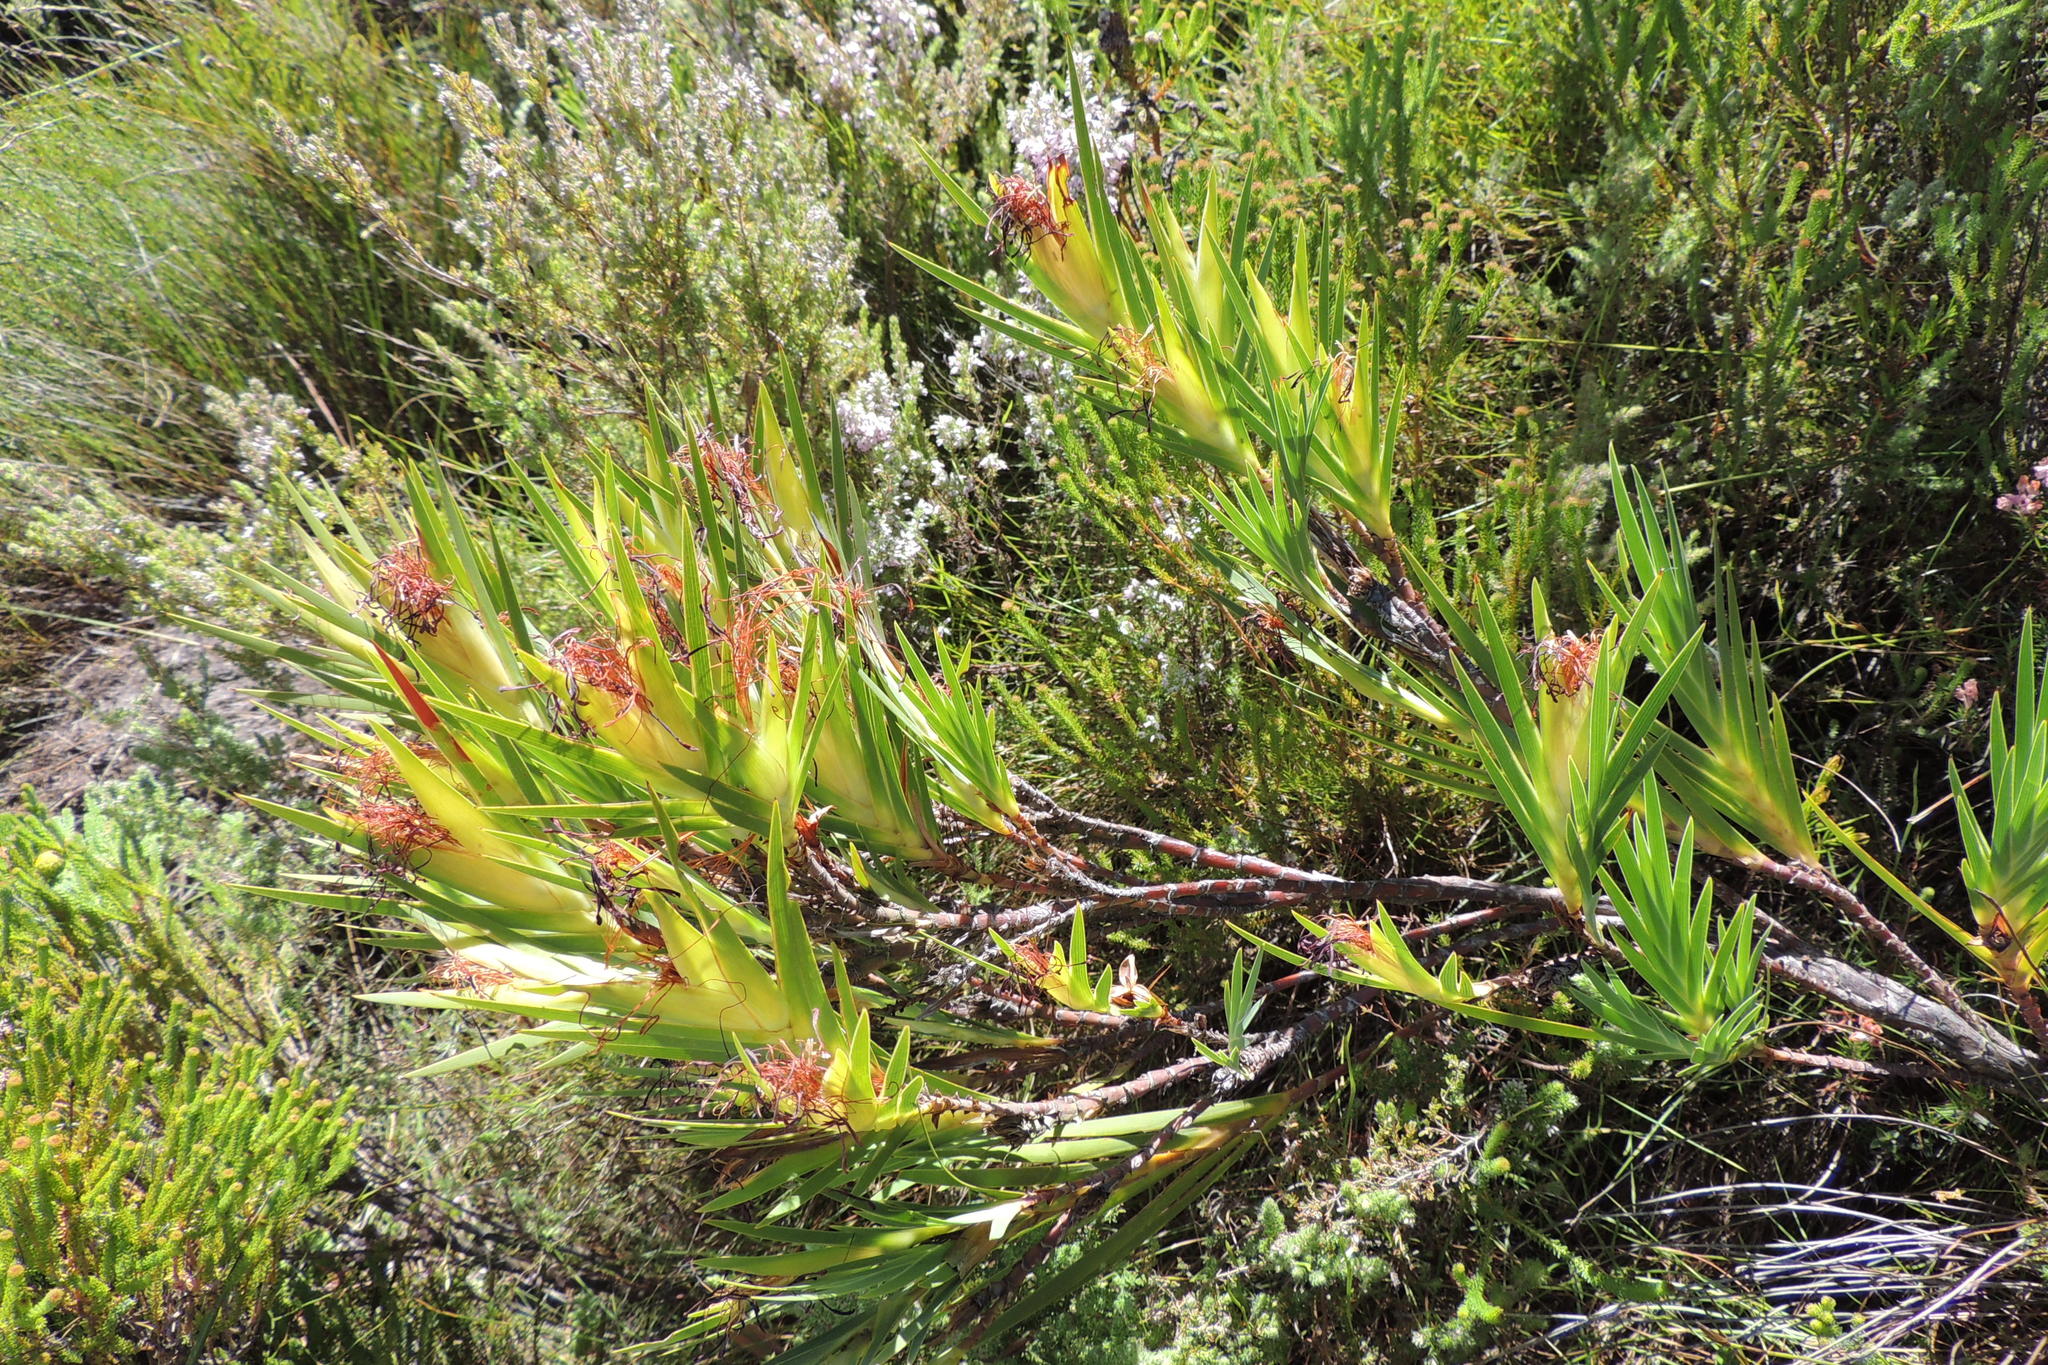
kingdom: Plantae
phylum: Tracheophyta
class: Liliopsida
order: Asparagales
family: Iridaceae
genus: Klattia
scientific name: Klattia partita
